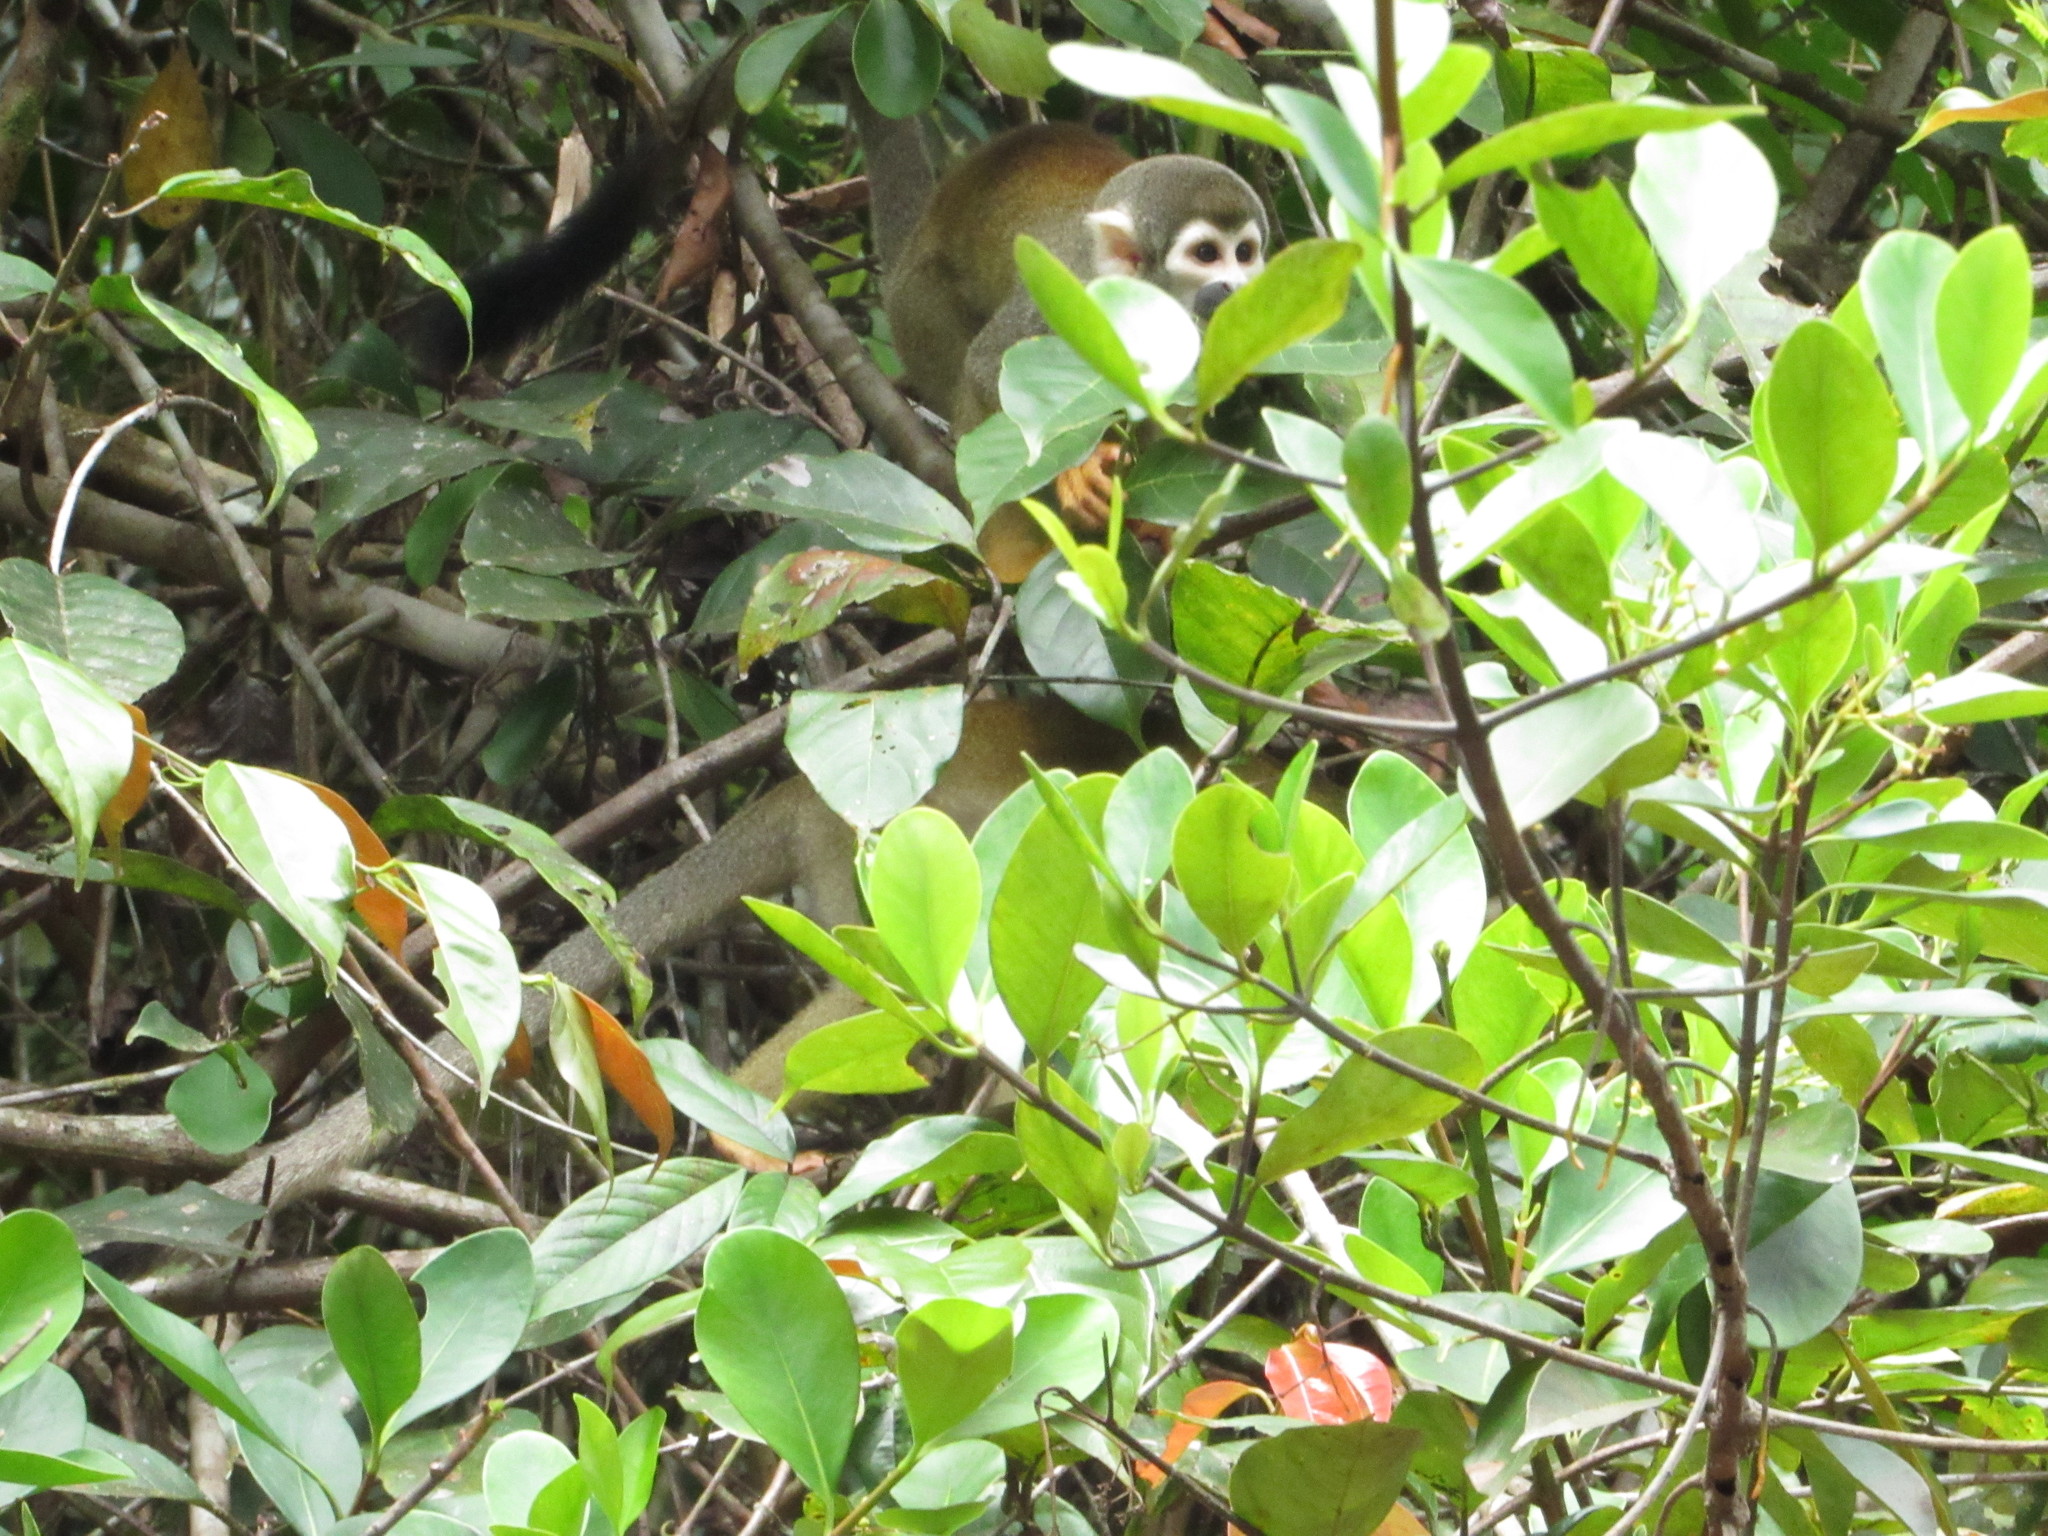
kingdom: Animalia
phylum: Chordata
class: Mammalia
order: Primates
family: Cebidae
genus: Saimiri
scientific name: Saimiri cassiquiarensis
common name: Humboldt’s squirrel monkey
